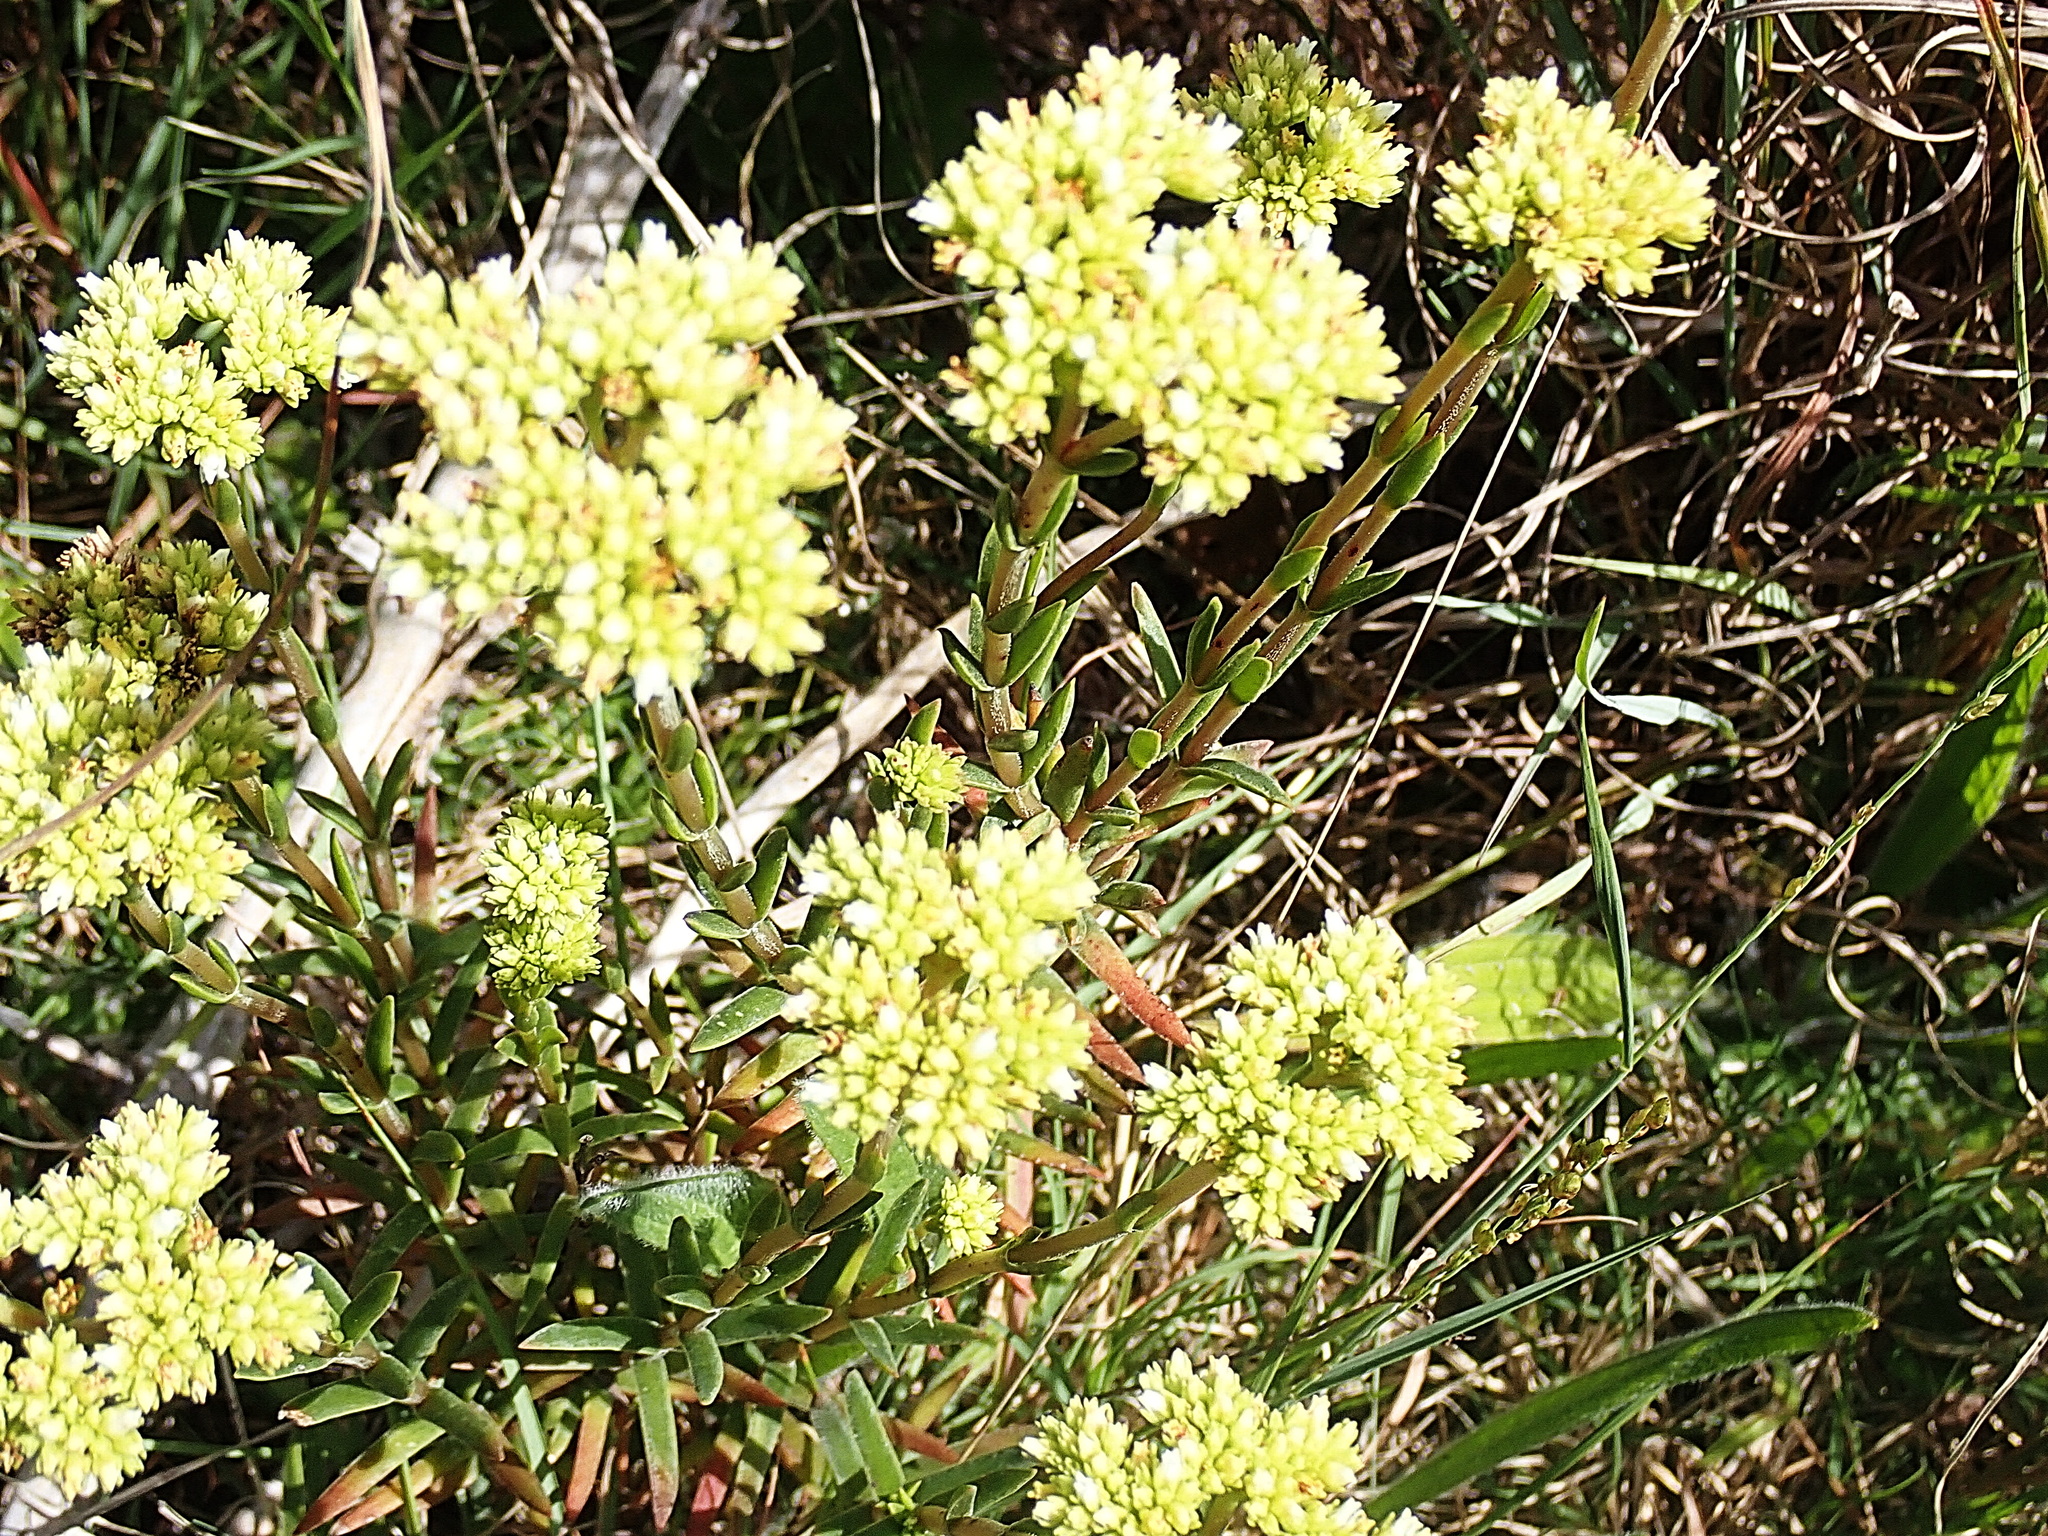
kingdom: Plantae
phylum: Tracheophyta
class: Magnoliopsida
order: Saxifragales
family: Crassulaceae
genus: Crassula
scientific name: Crassula subulata
